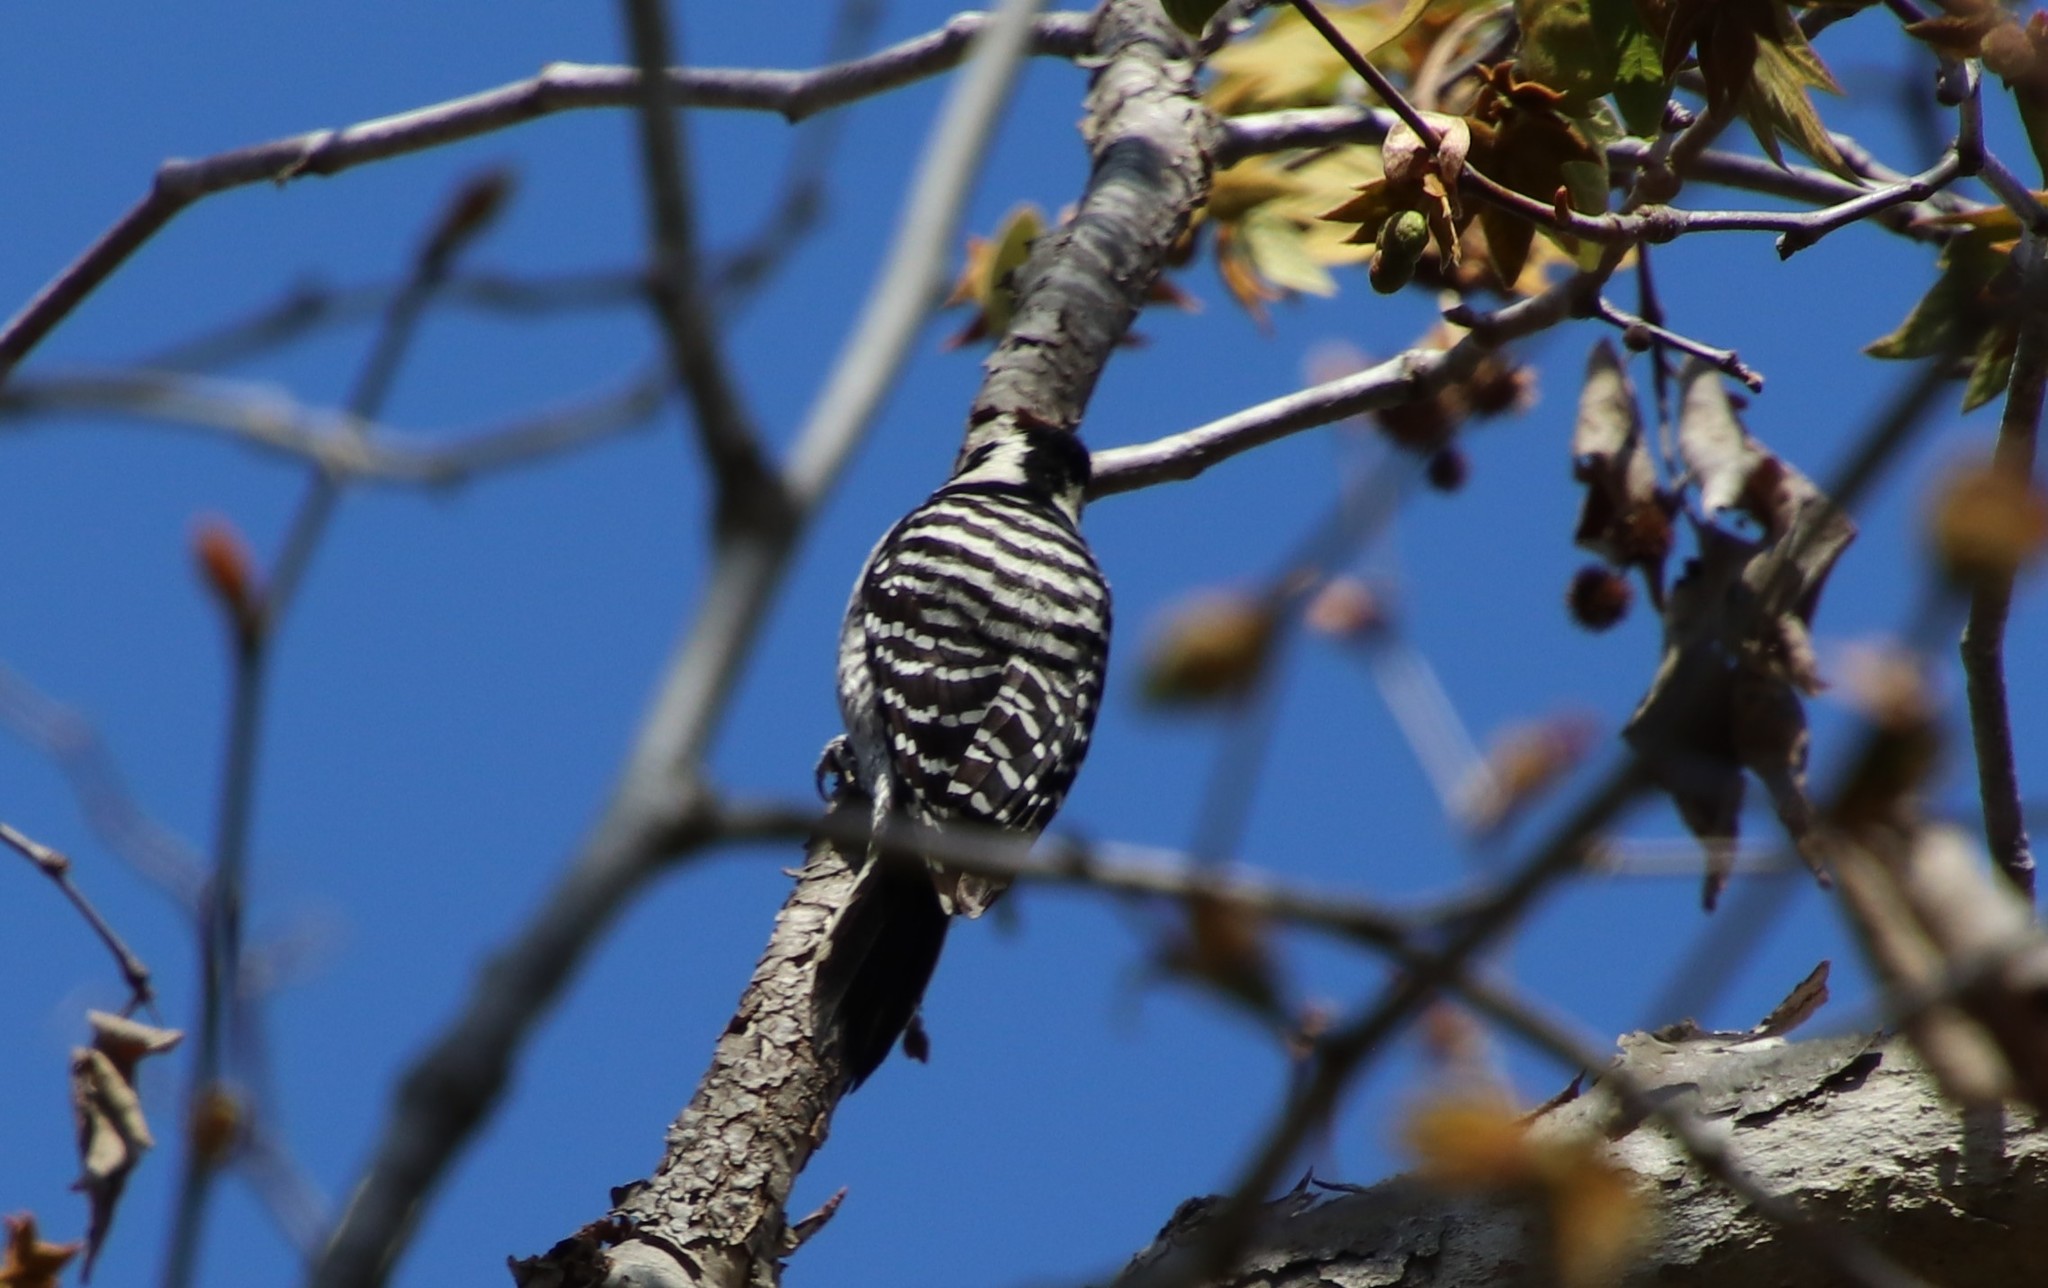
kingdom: Animalia
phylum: Chordata
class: Aves
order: Piciformes
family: Picidae
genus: Dryobates
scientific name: Dryobates nuttallii
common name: Nuttall's woodpecker
